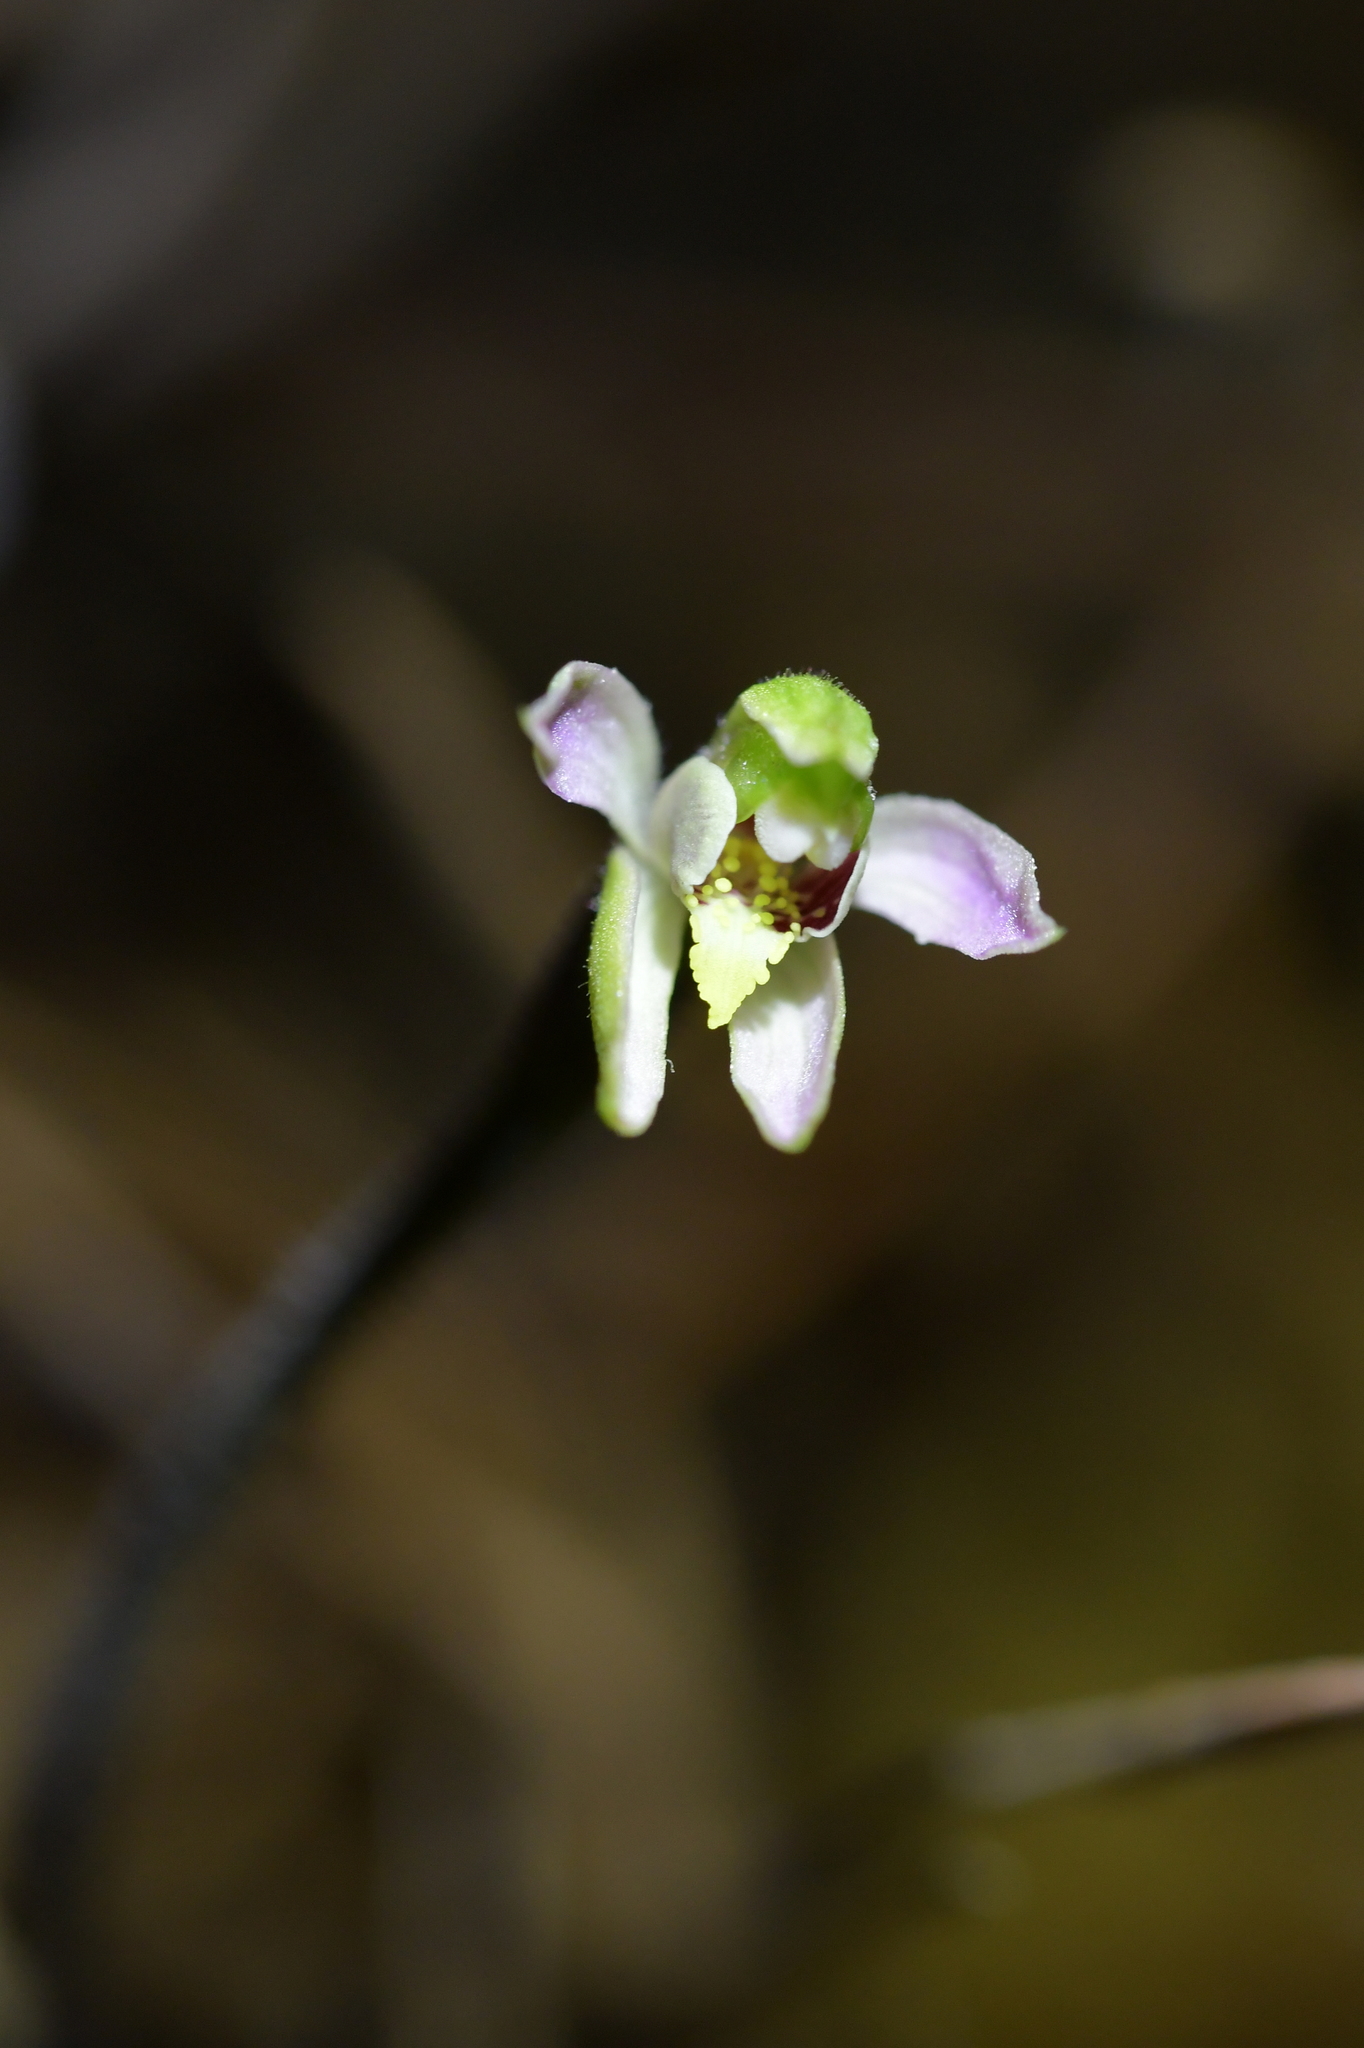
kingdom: Plantae
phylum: Tracheophyta
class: Liliopsida
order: Asparagales
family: Orchidaceae
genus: Caladenia
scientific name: Caladenia variegata
